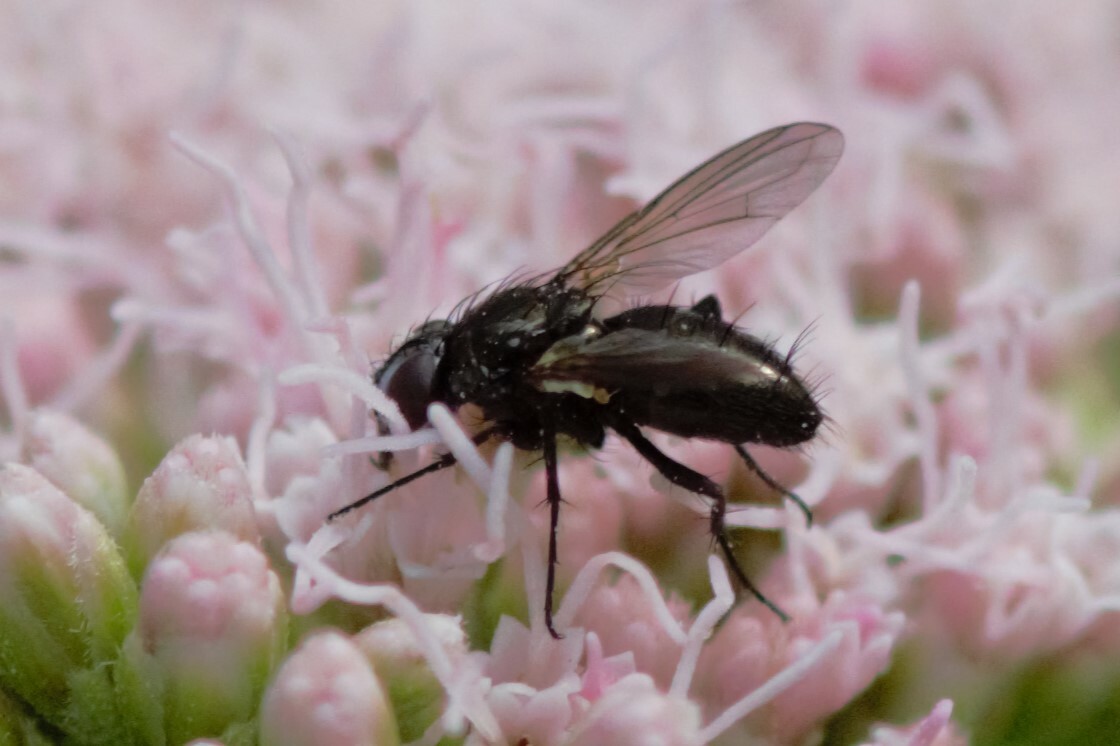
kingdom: Animalia
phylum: Arthropoda
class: Insecta
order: Diptera
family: Calliphoridae
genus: Rhinophora
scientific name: Rhinophora lepida
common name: Pouting woodlouse-fly
